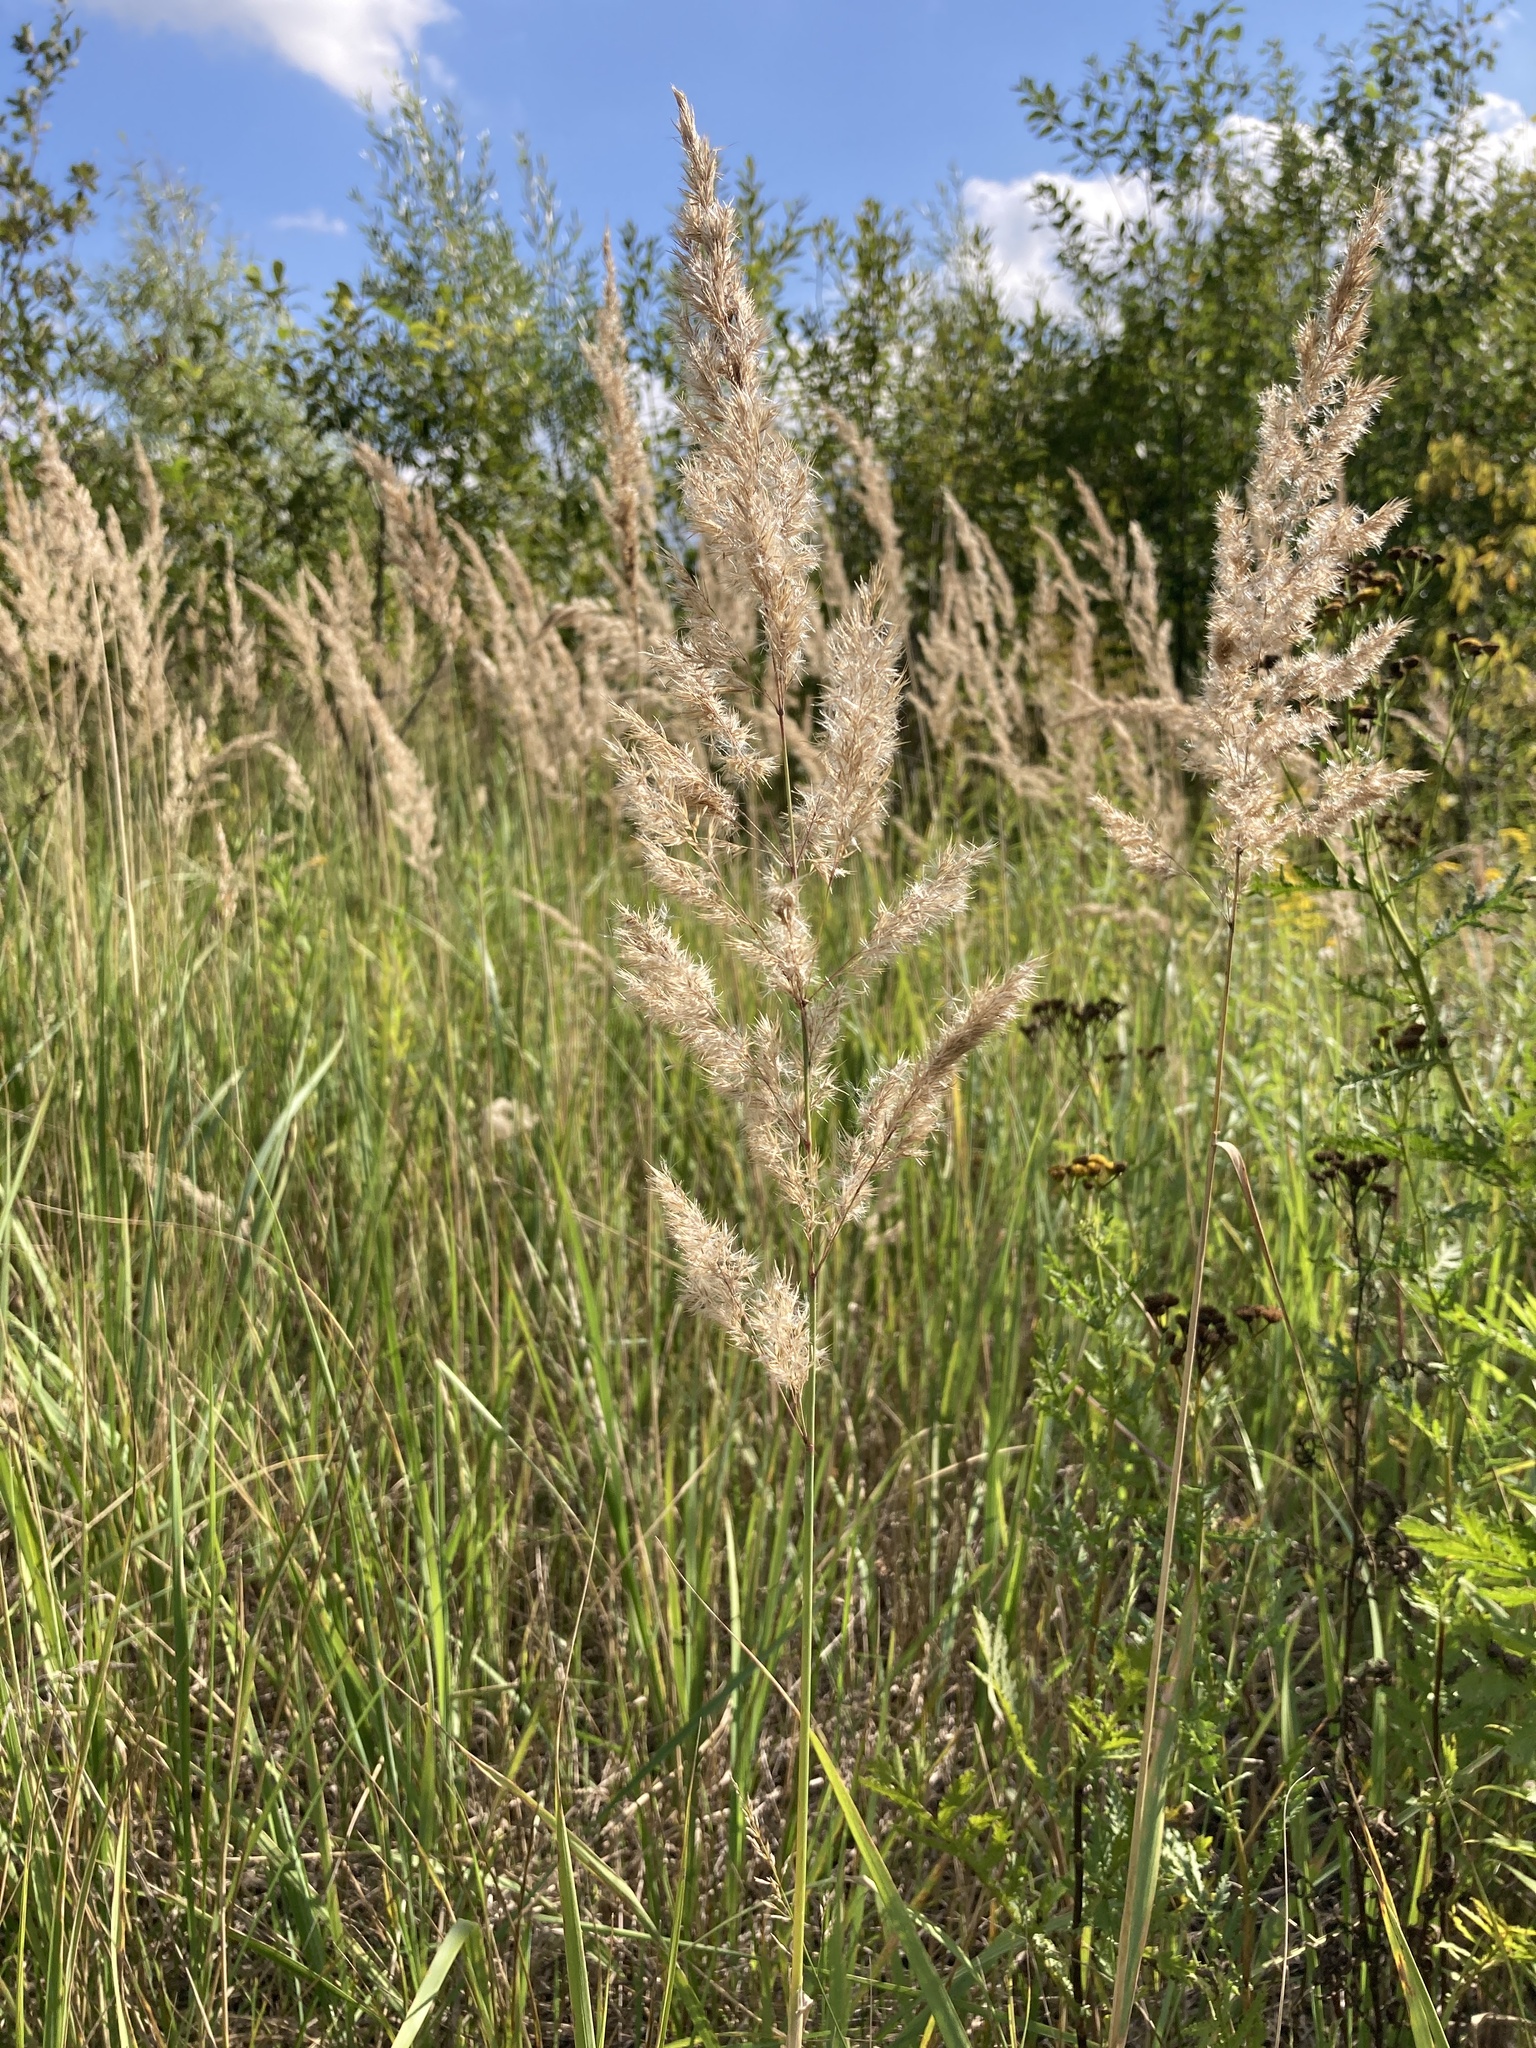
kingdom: Plantae
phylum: Tracheophyta
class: Liliopsida
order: Poales
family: Poaceae
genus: Calamagrostis
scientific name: Calamagrostis epigejos
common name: Wood small-reed
